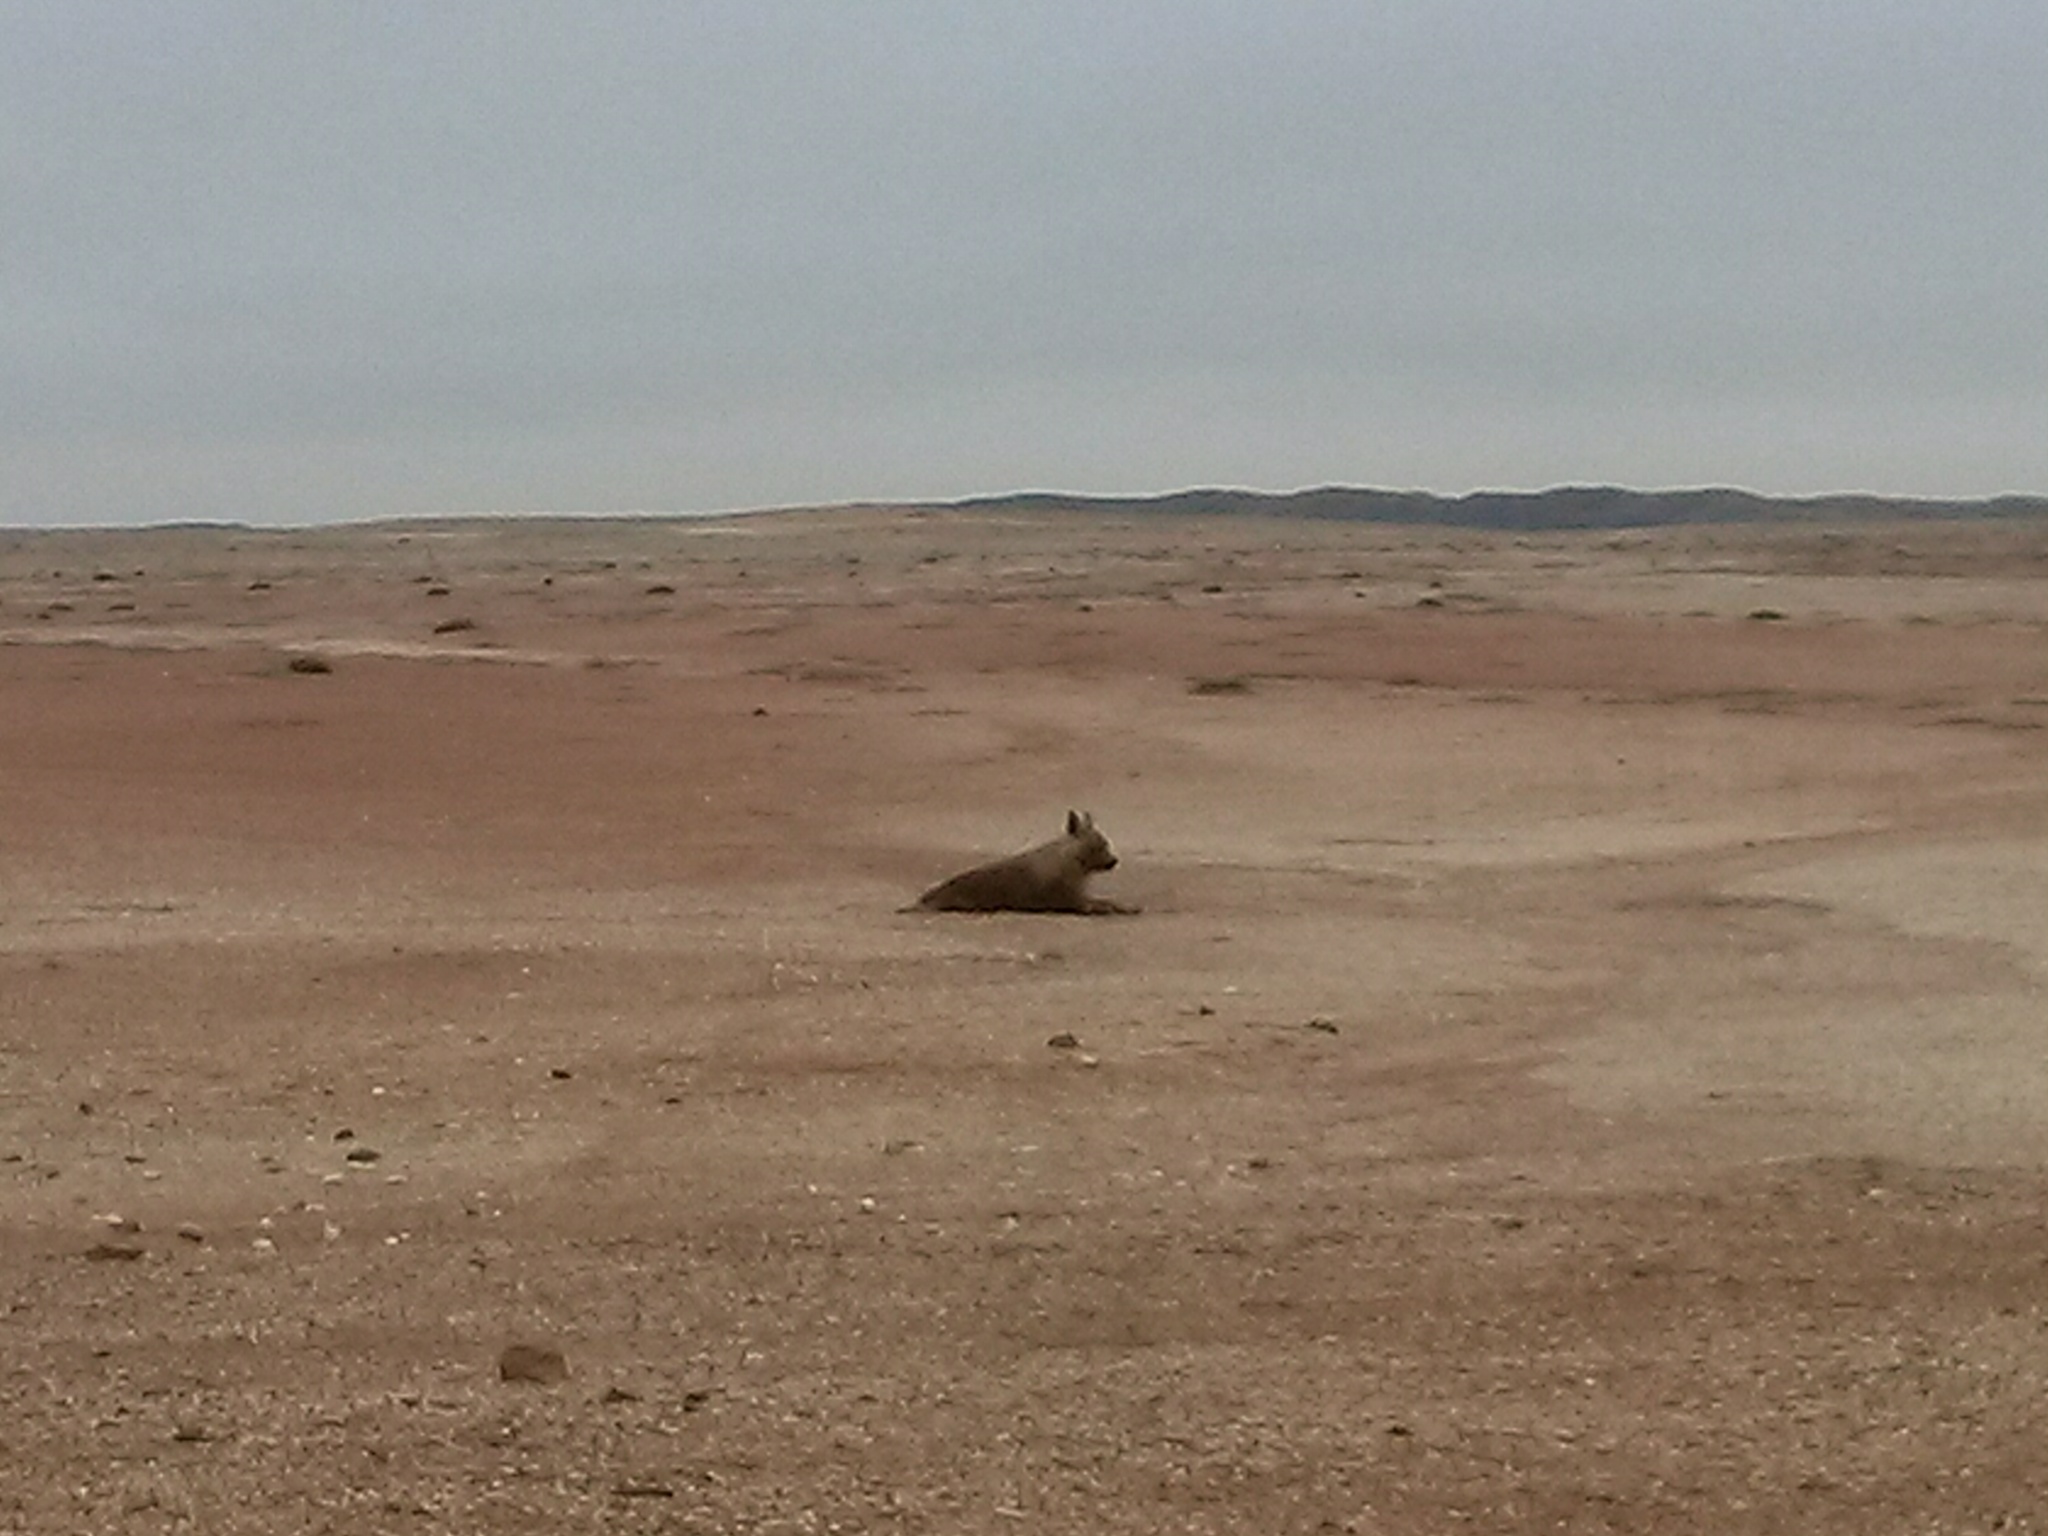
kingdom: Animalia
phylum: Chordata
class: Mammalia
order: Carnivora
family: Hyaenidae
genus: Hyaena
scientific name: Hyaena brunnea
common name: Brown hyena
